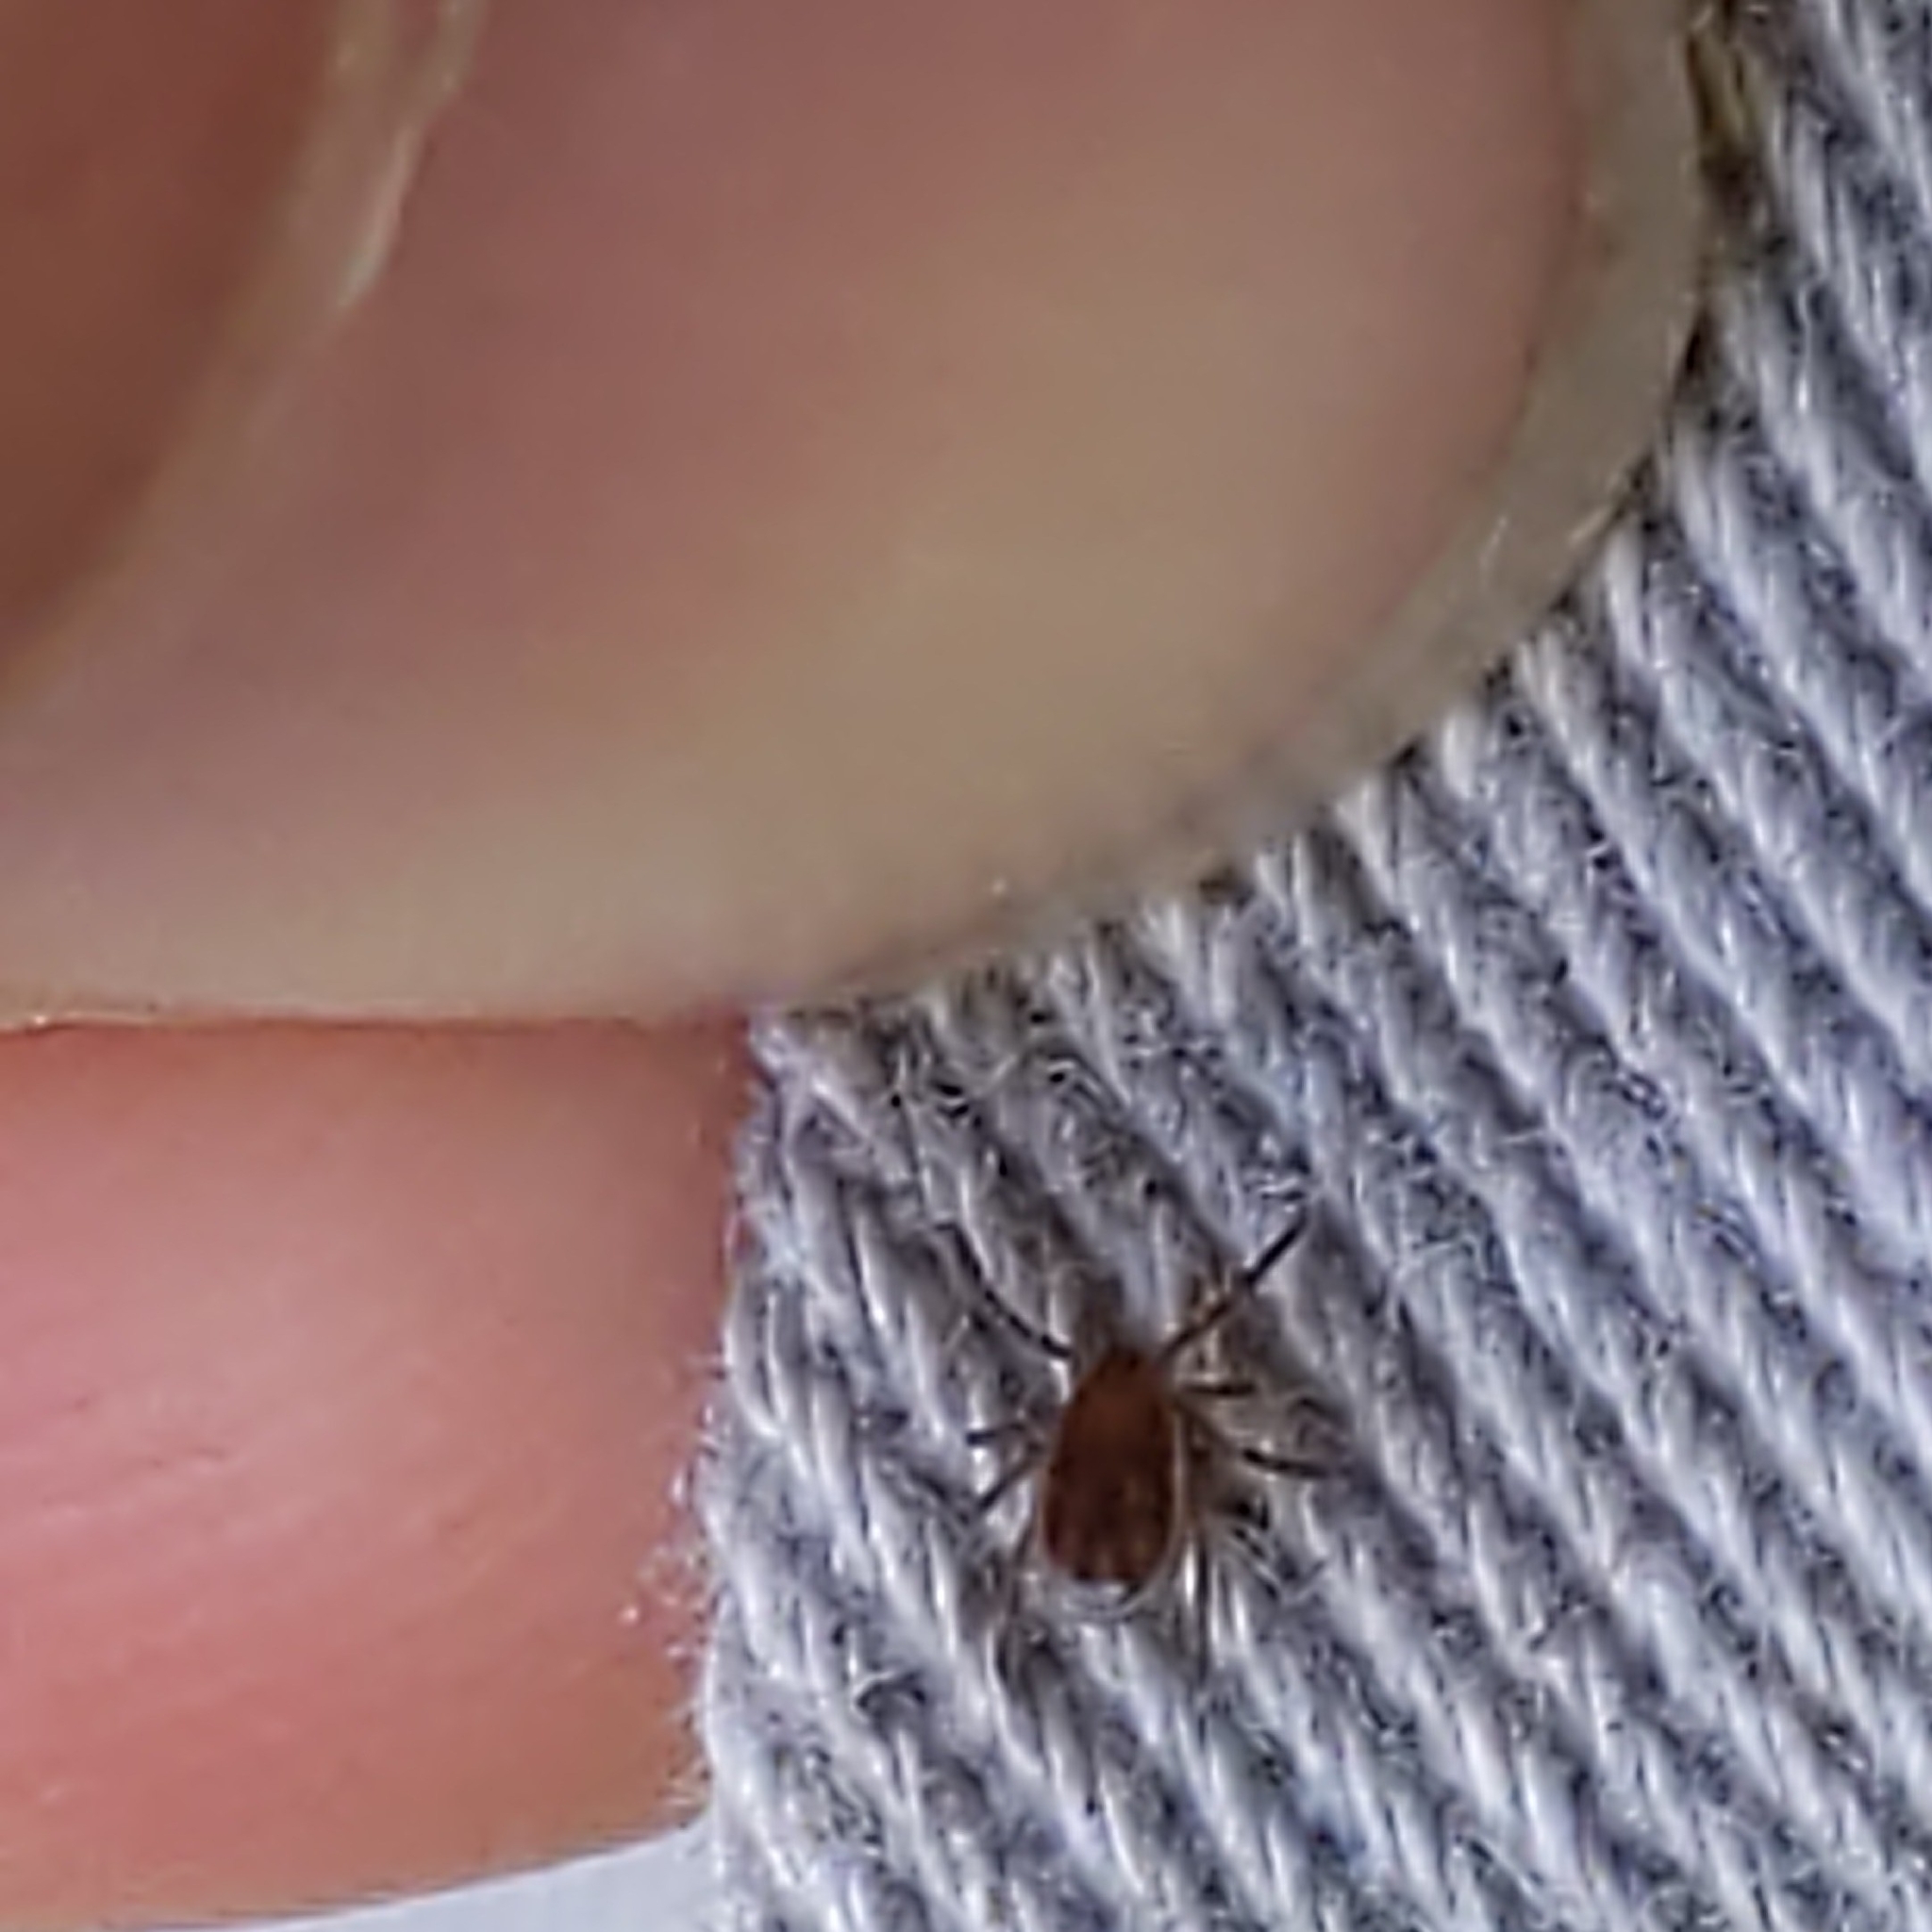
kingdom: Animalia
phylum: Arthropoda
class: Arachnida
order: Ixodida
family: Ixodidae
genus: Ixodes
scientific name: Ixodes scapularis
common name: Black legged tick
